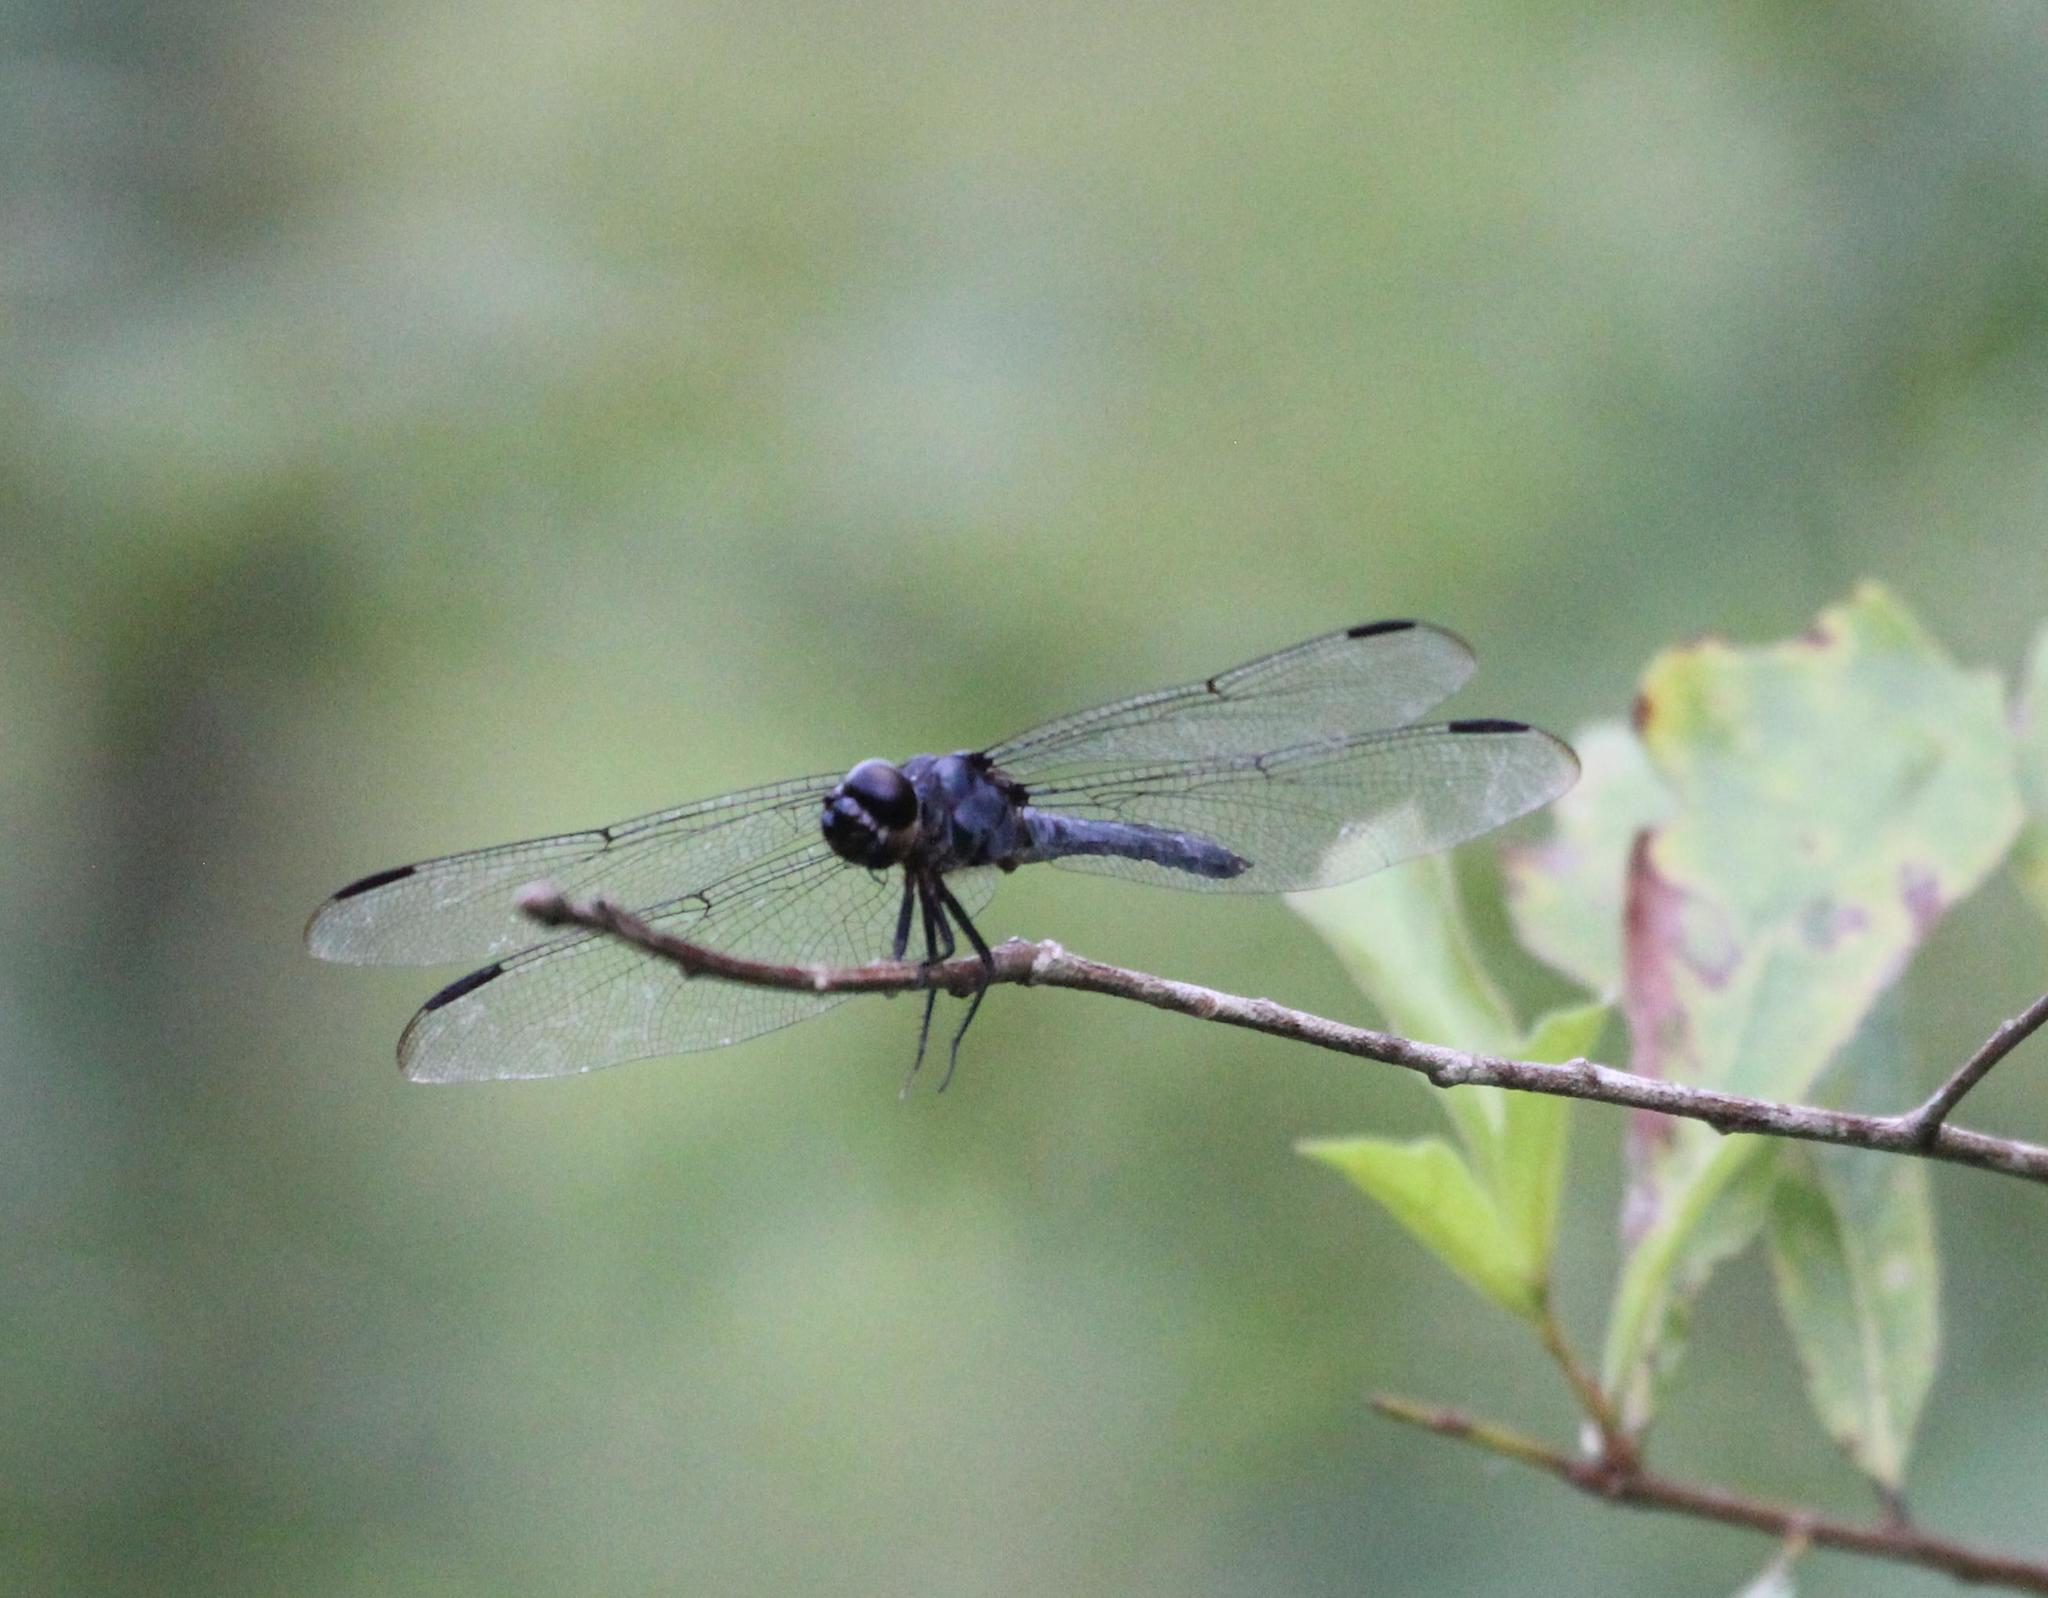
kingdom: Animalia
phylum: Arthropoda
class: Insecta
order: Odonata
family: Libellulidae
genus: Libellula
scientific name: Libellula incesta
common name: Slaty skimmer
